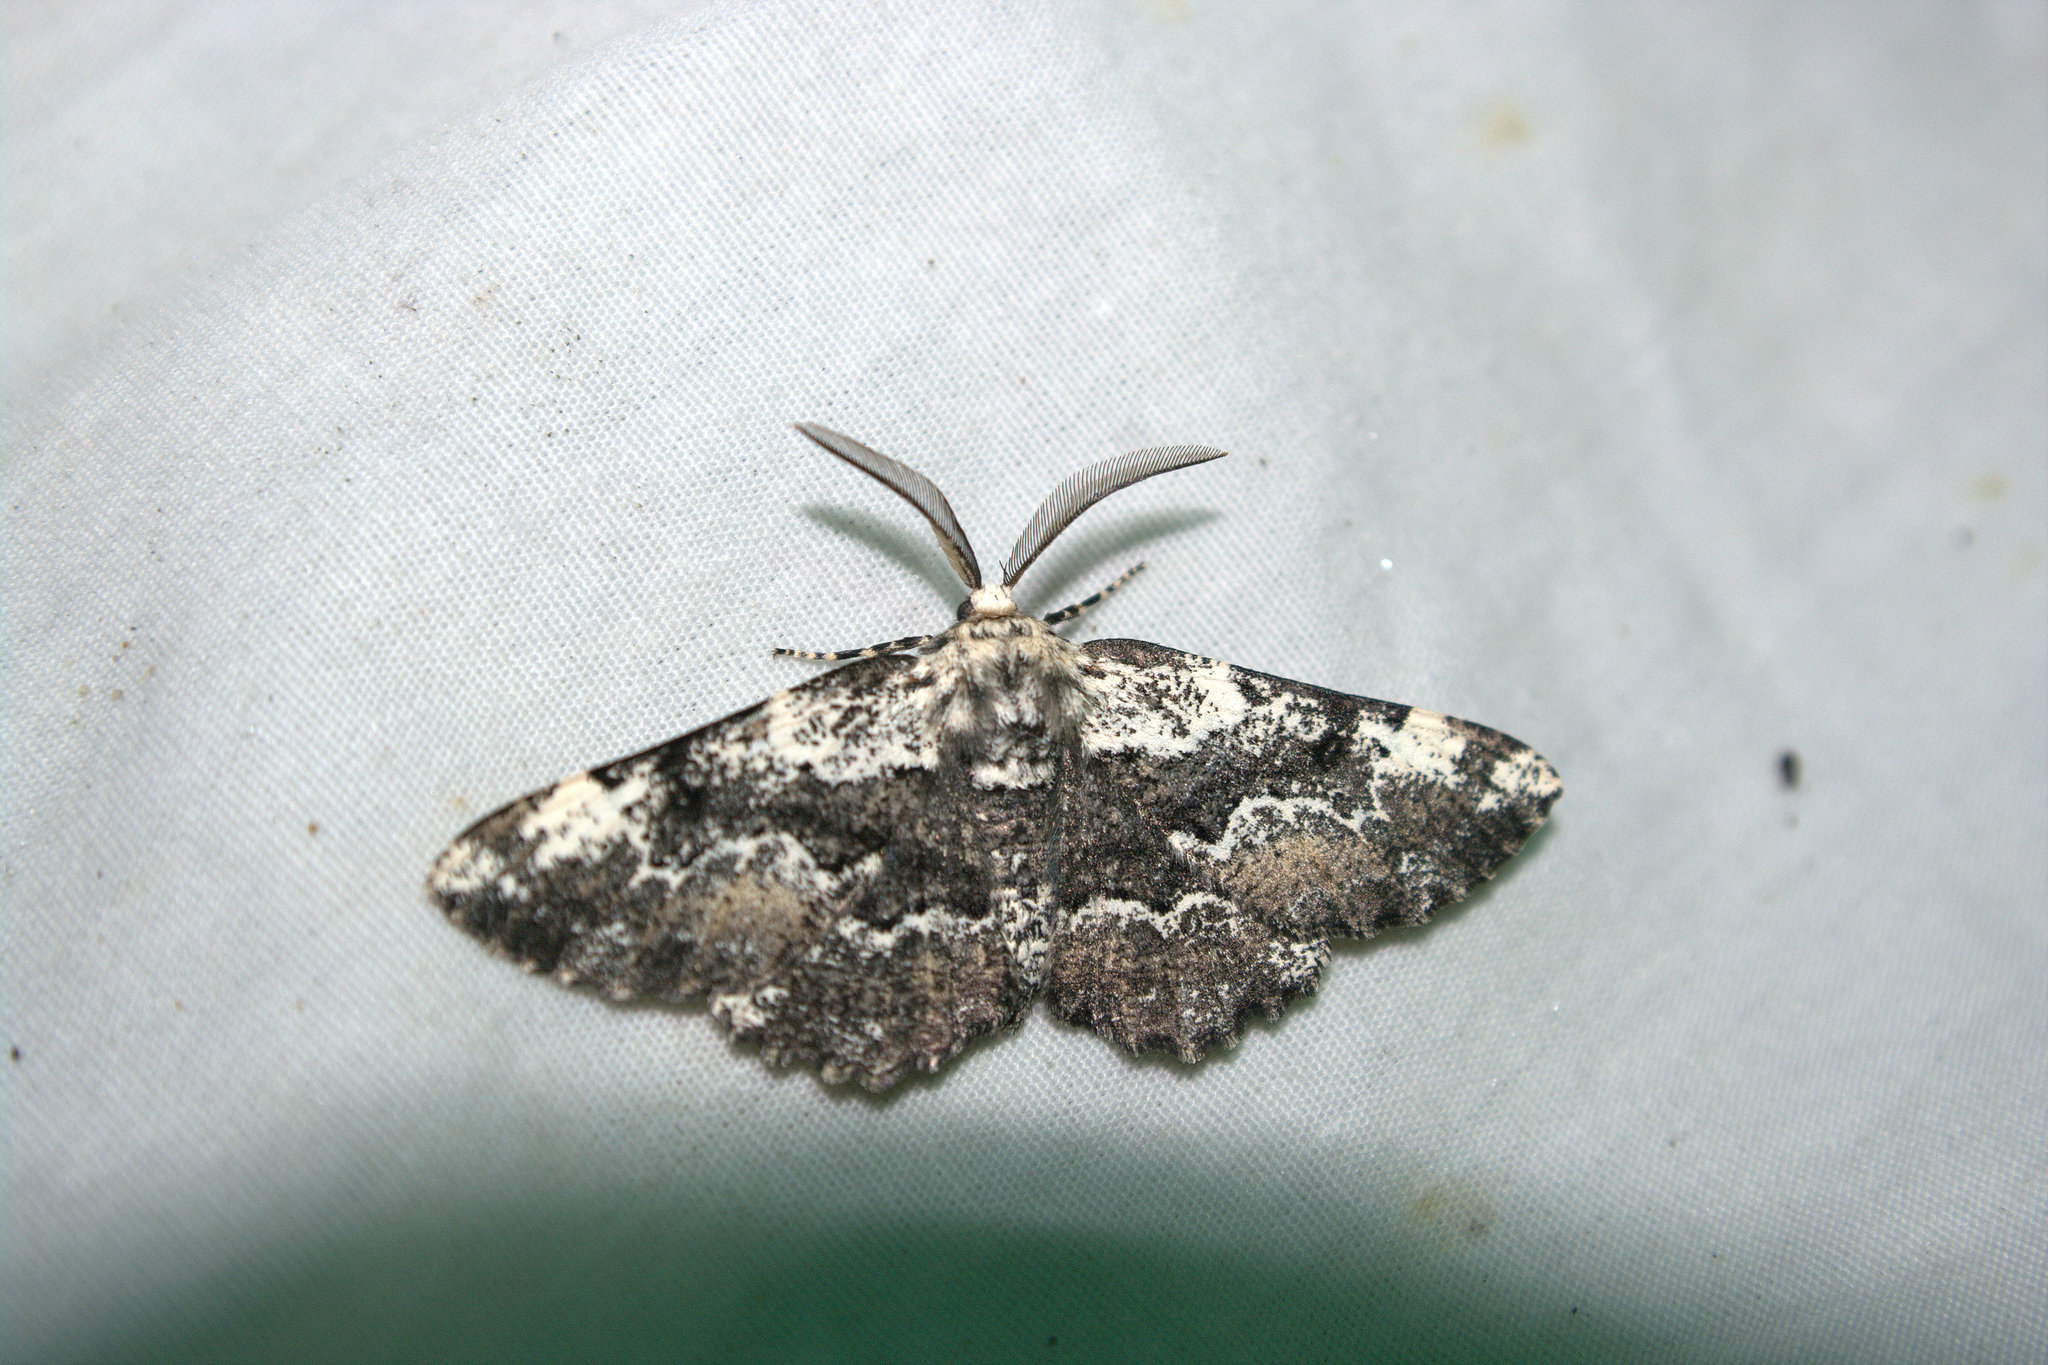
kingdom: Animalia
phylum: Arthropoda
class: Insecta
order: Lepidoptera
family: Geometridae
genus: Phaeoura
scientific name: Phaeoura quernaria
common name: Oak beauty
